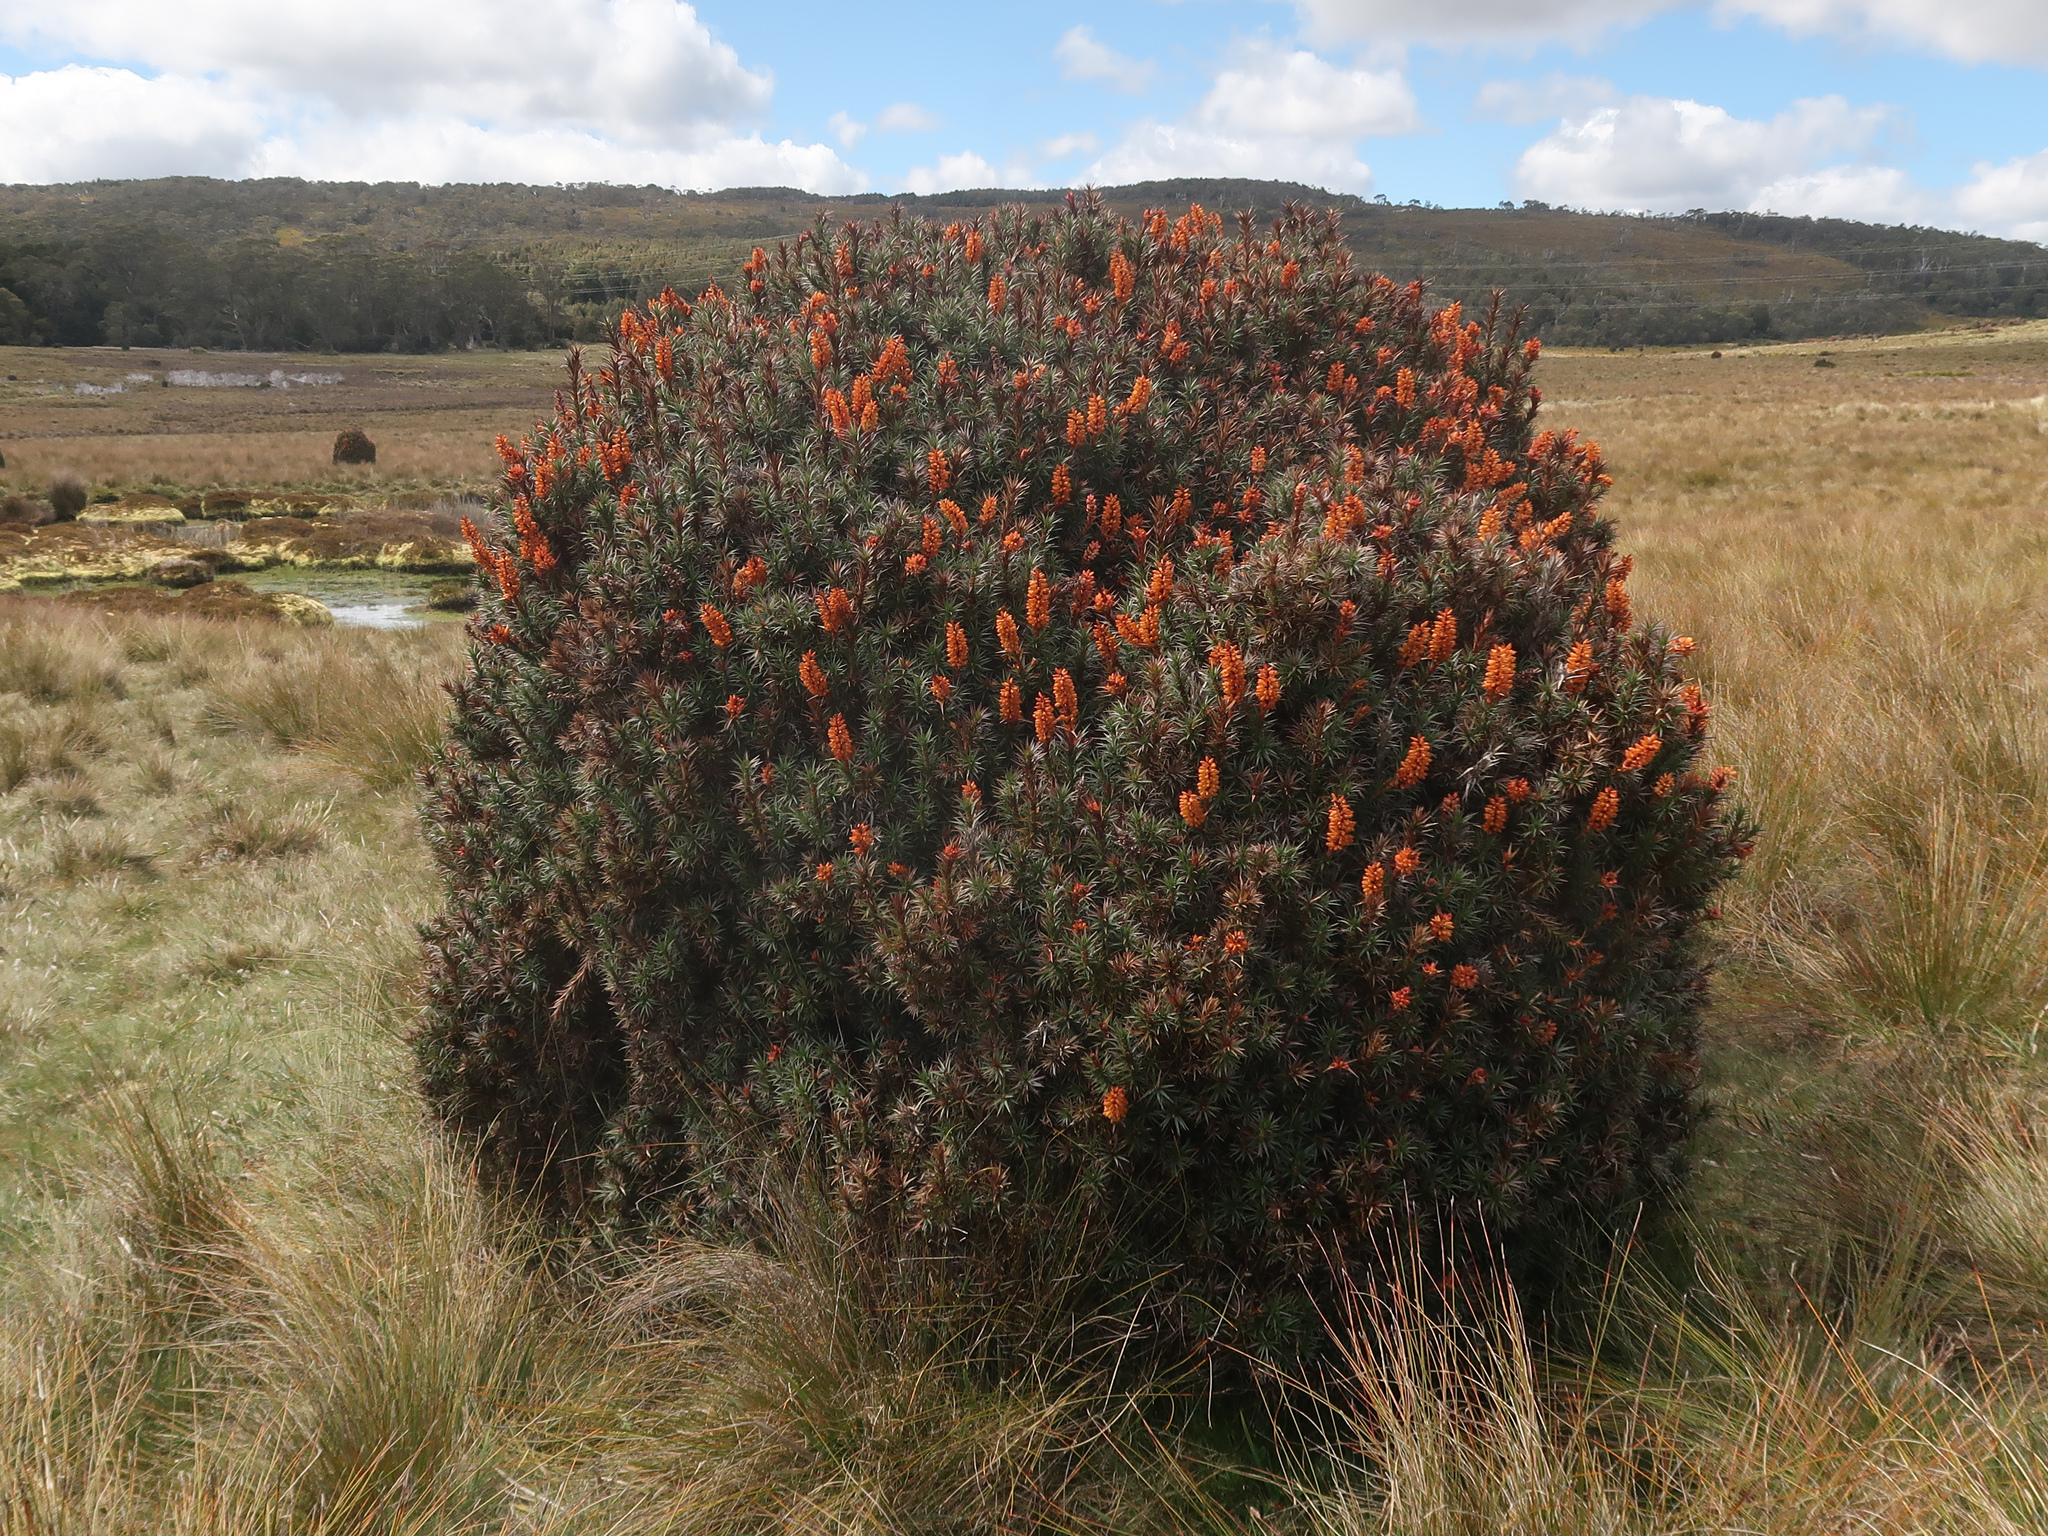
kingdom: Plantae
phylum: Tracheophyta
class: Magnoliopsida
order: Ericales
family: Ericaceae
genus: Dracophyllum
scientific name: Dracophyllum persistentifolium
